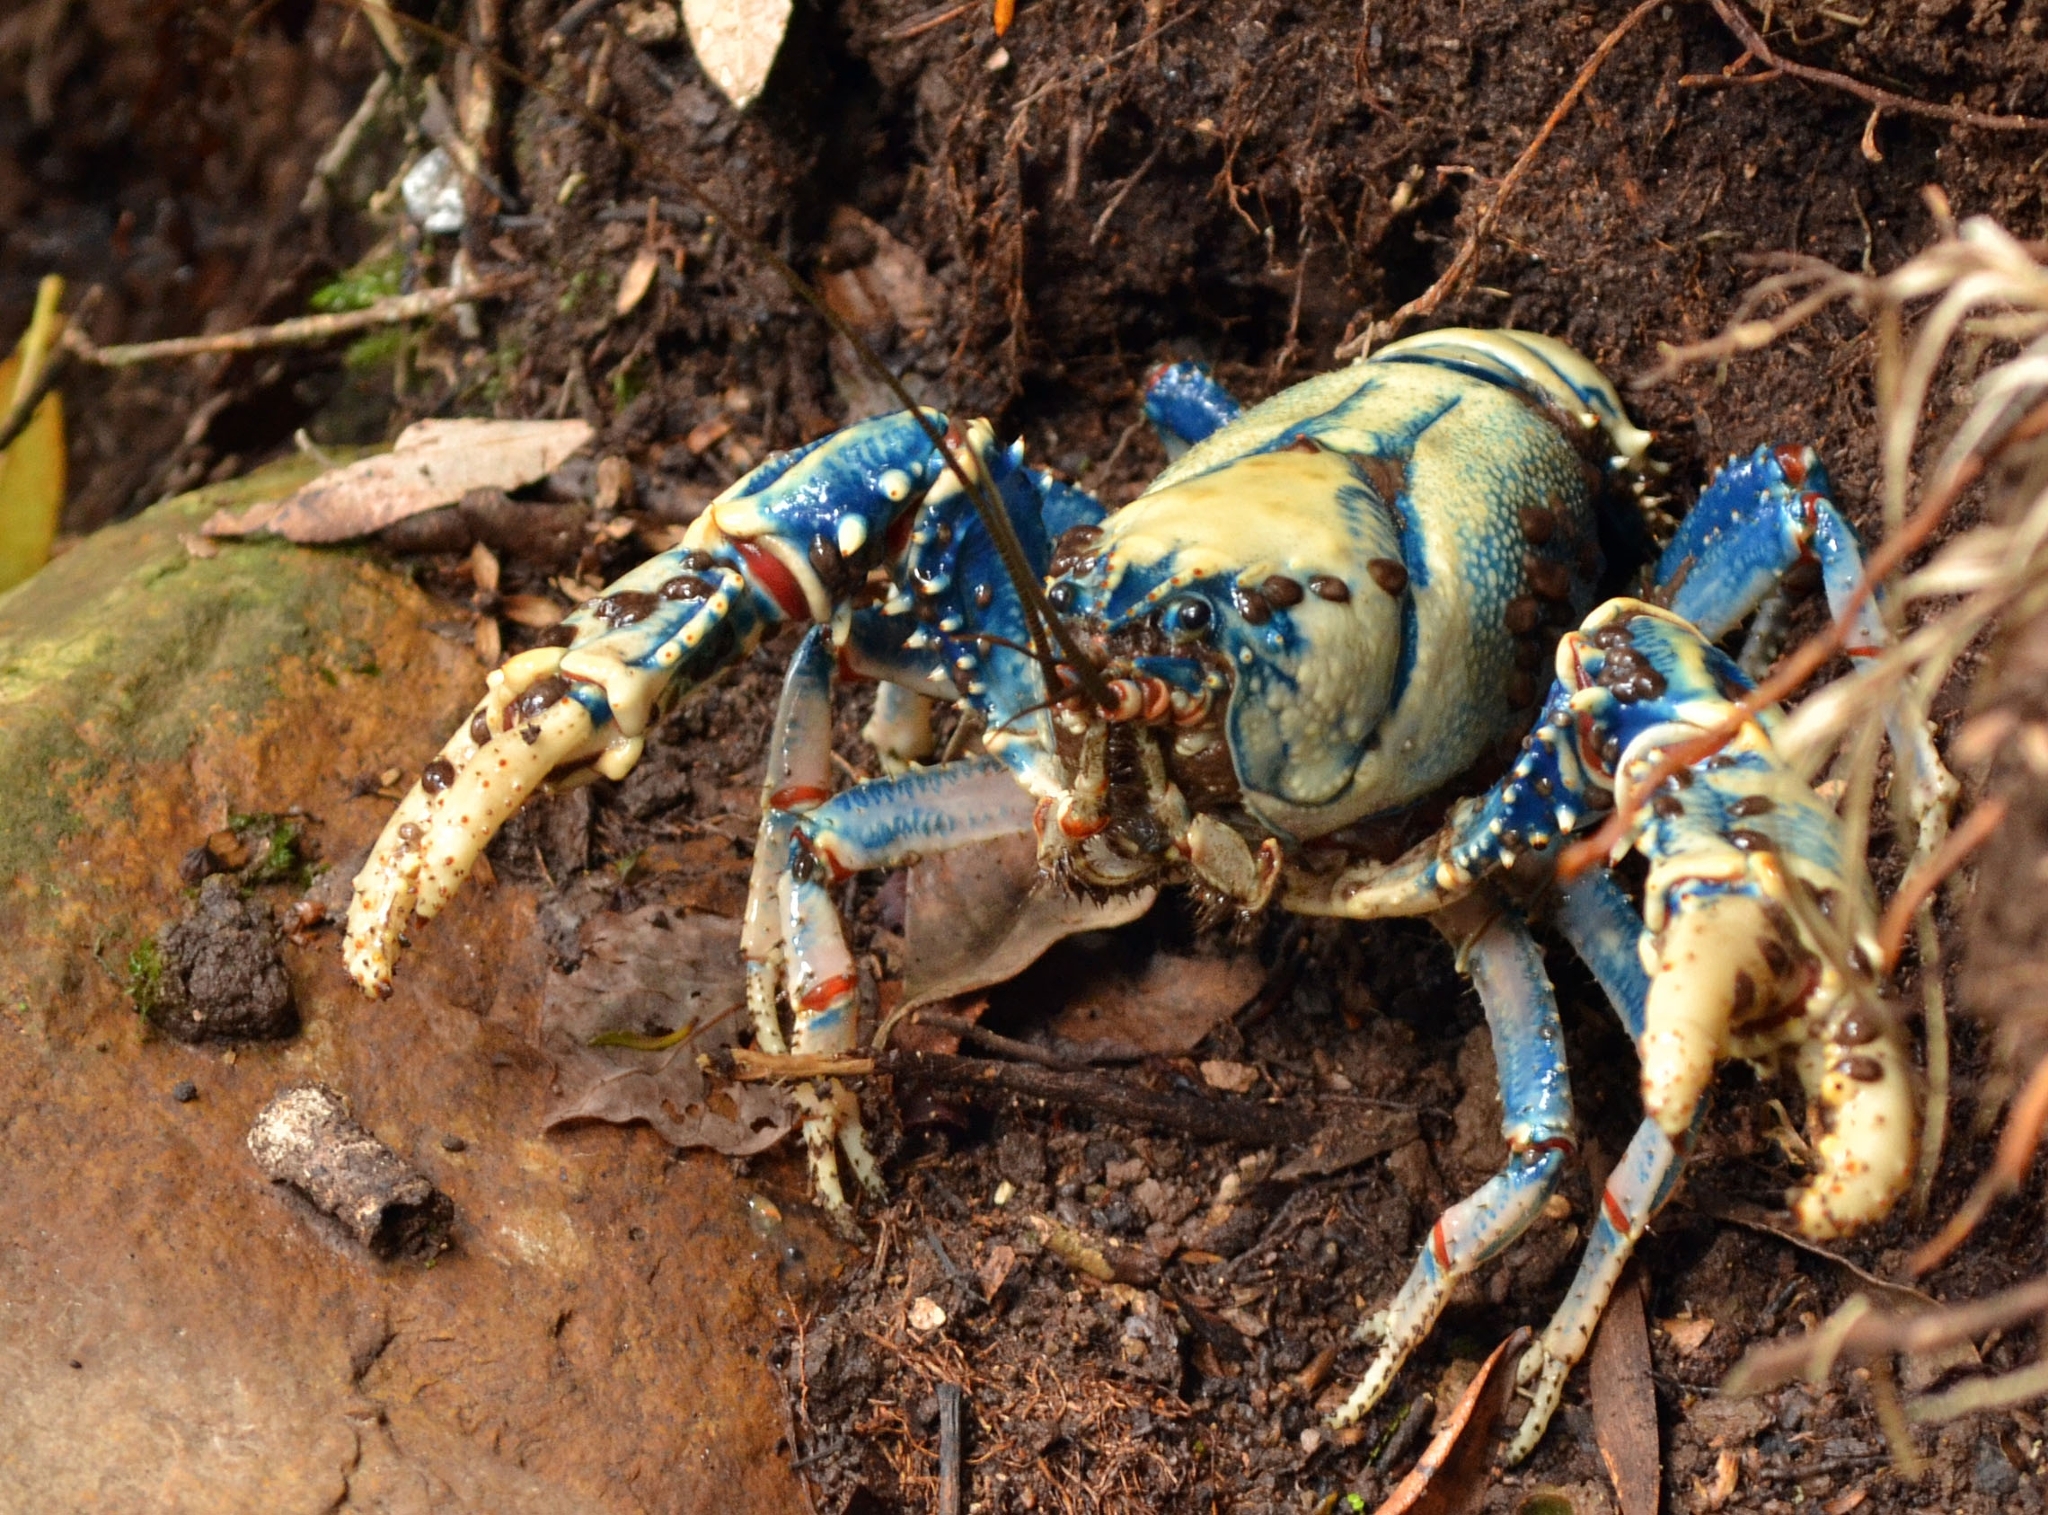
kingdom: Animalia
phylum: Arthropoda
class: Malacostraca
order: Decapoda
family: Parastacidae
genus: Euastacus
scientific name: Euastacus sulcatus
